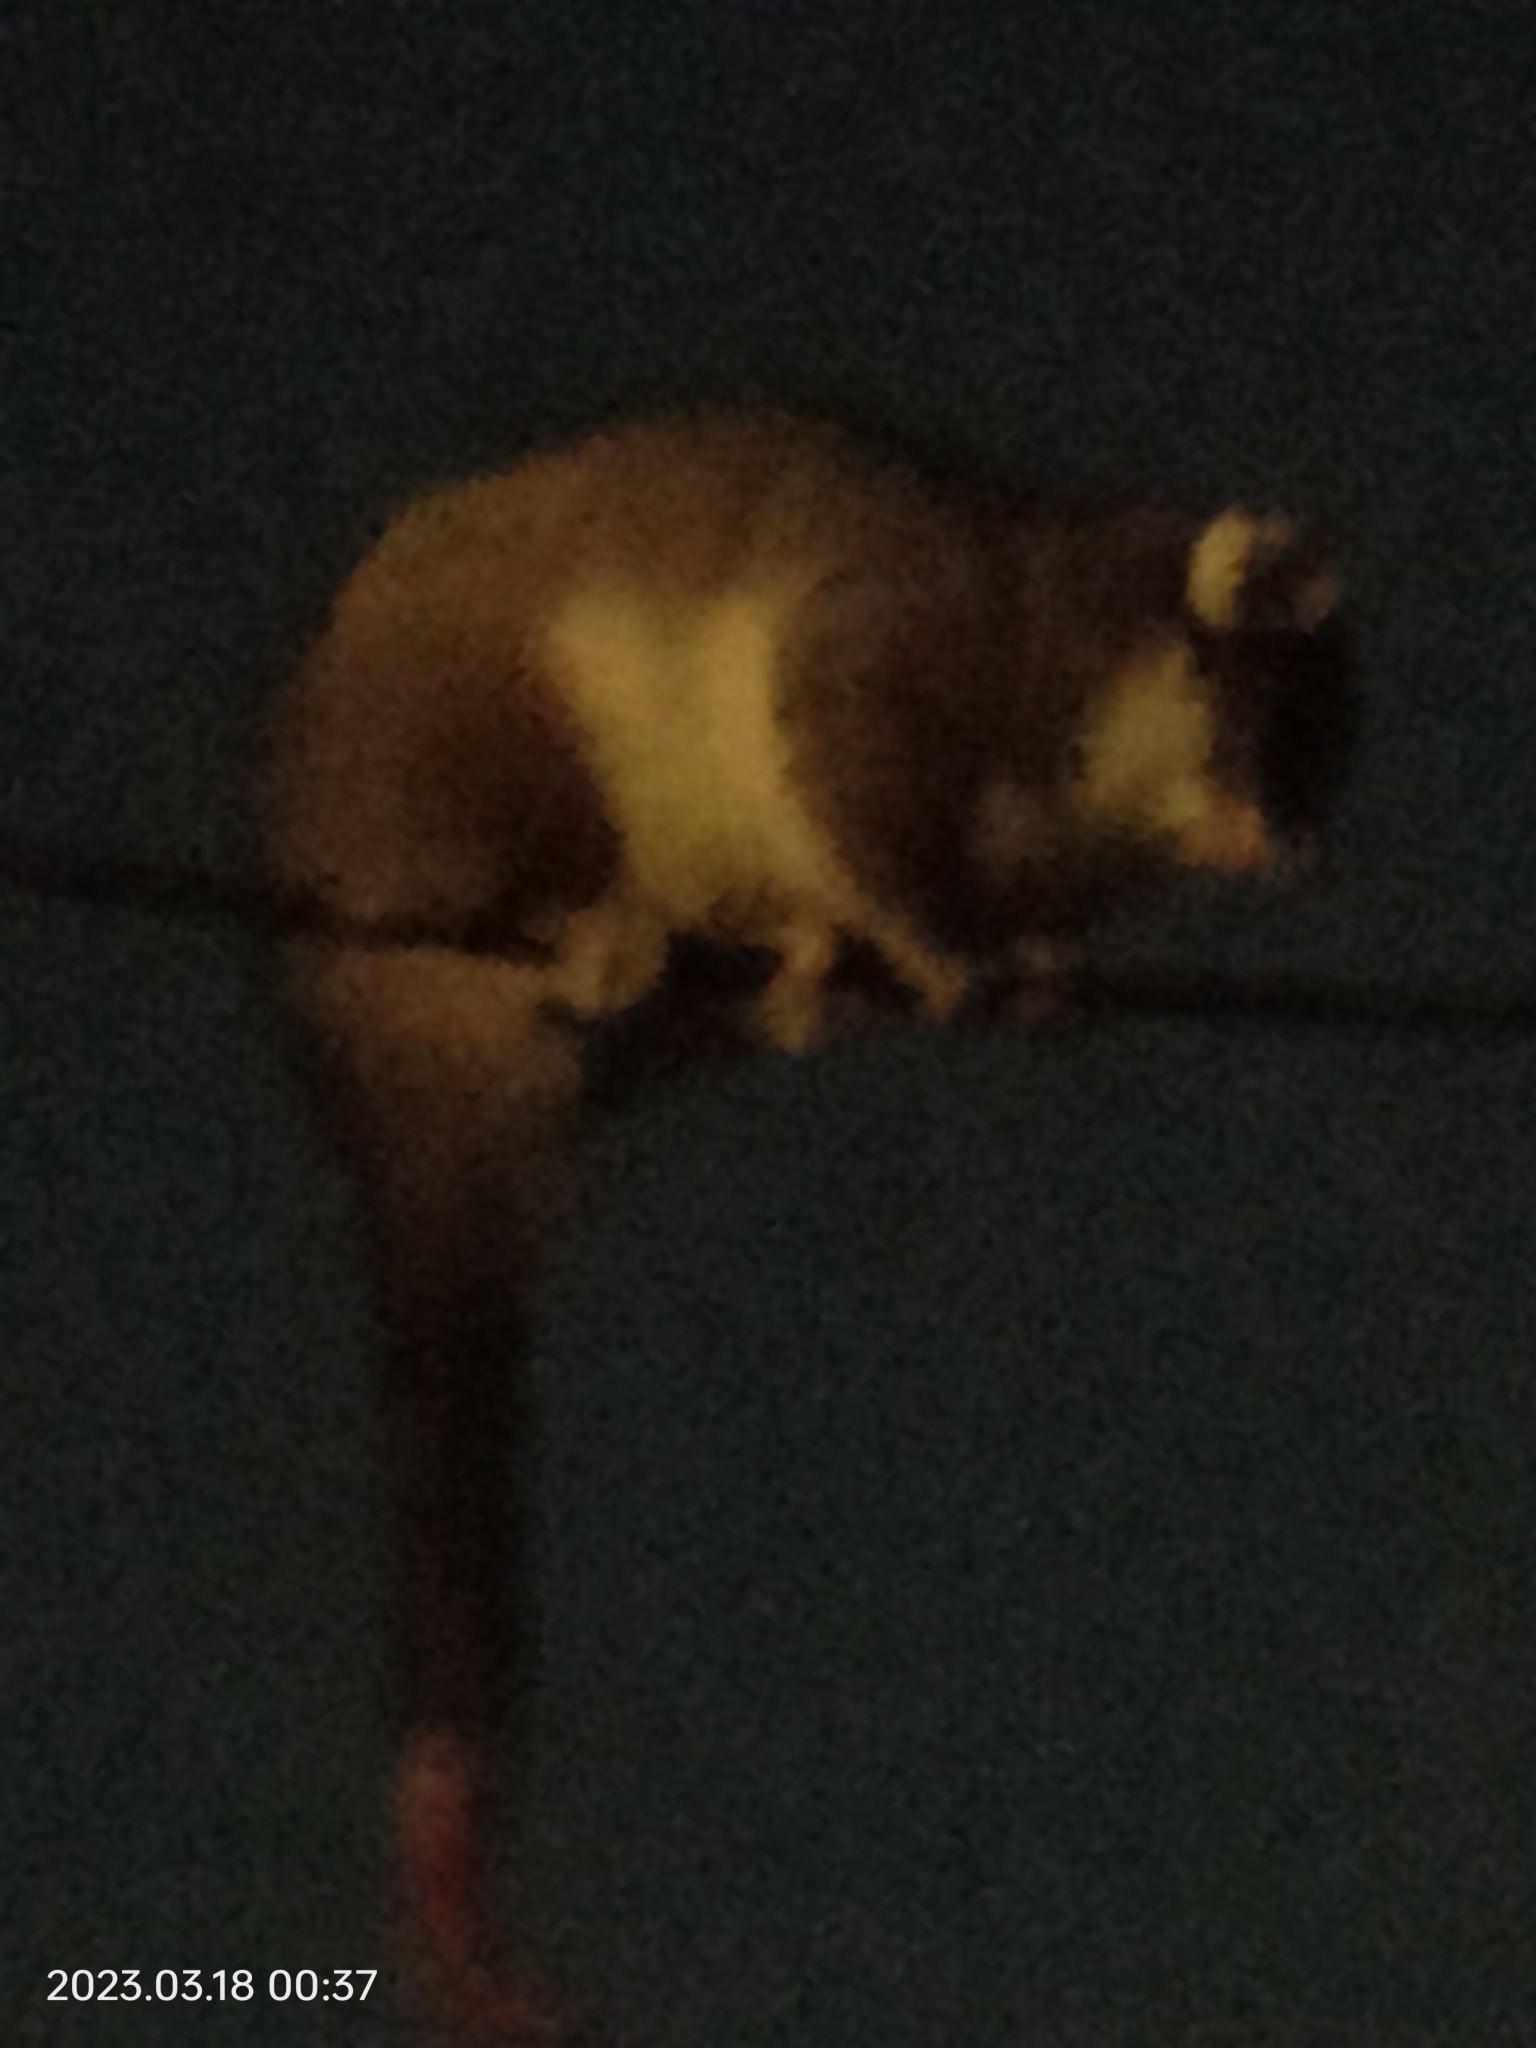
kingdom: Animalia
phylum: Chordata
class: Mammalia
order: Diprotodontia
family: Pseudocheiridae
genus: Pseudocheirus
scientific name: Pseudocheirus peregrinus
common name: Common ringtail possum
